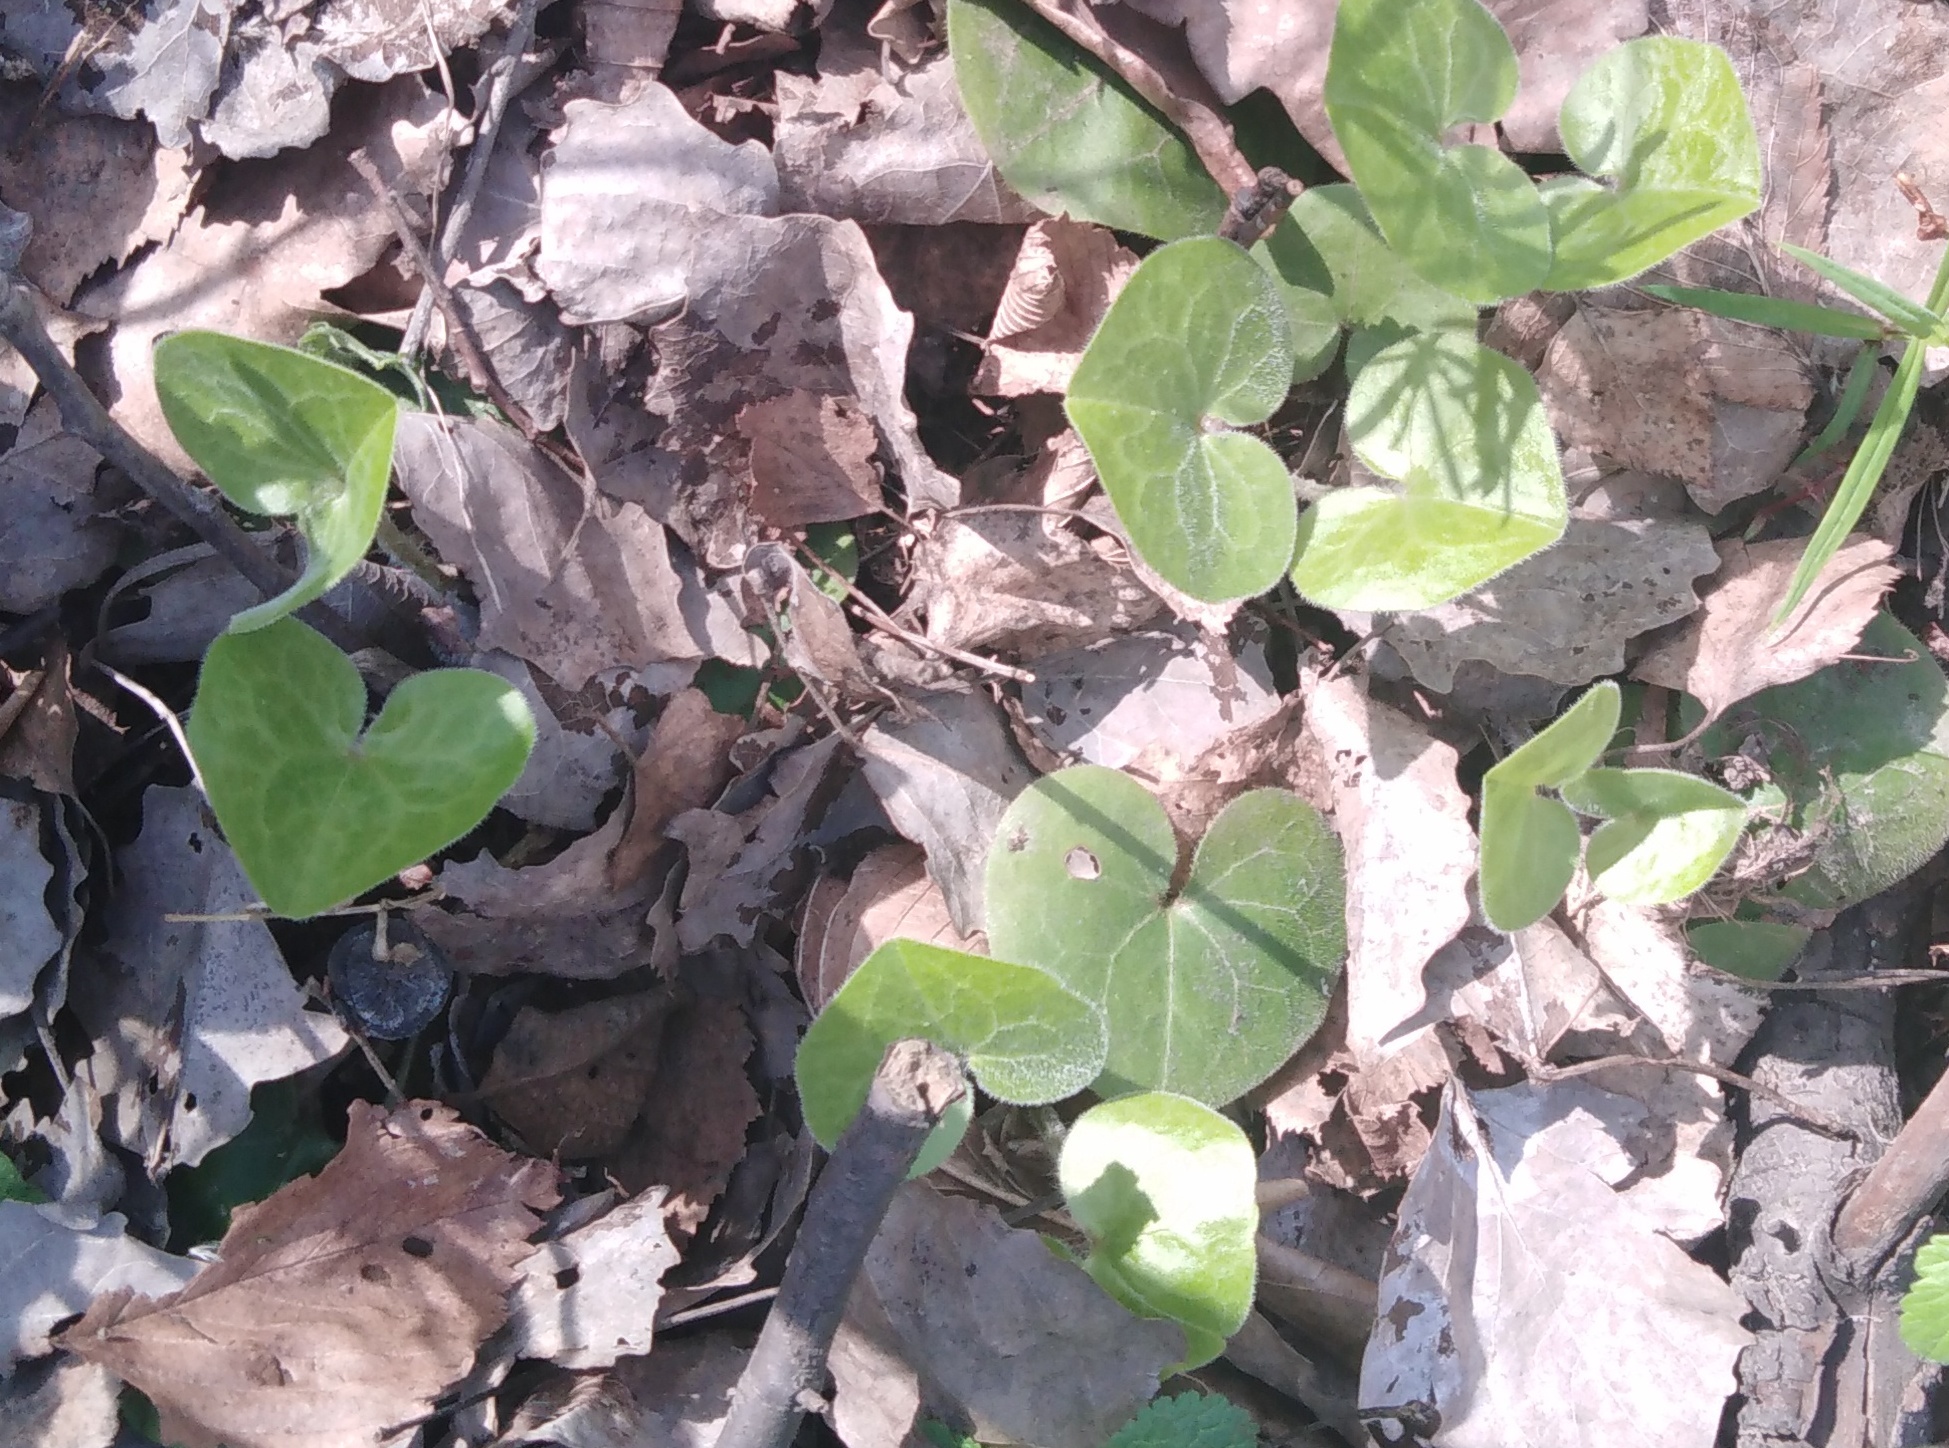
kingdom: Plantae
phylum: Tracheophyta
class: Magnoliopsida
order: Piperales
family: Aristolochiaceae
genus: Asarum
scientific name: Asarum europaeum
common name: Asarabacca
